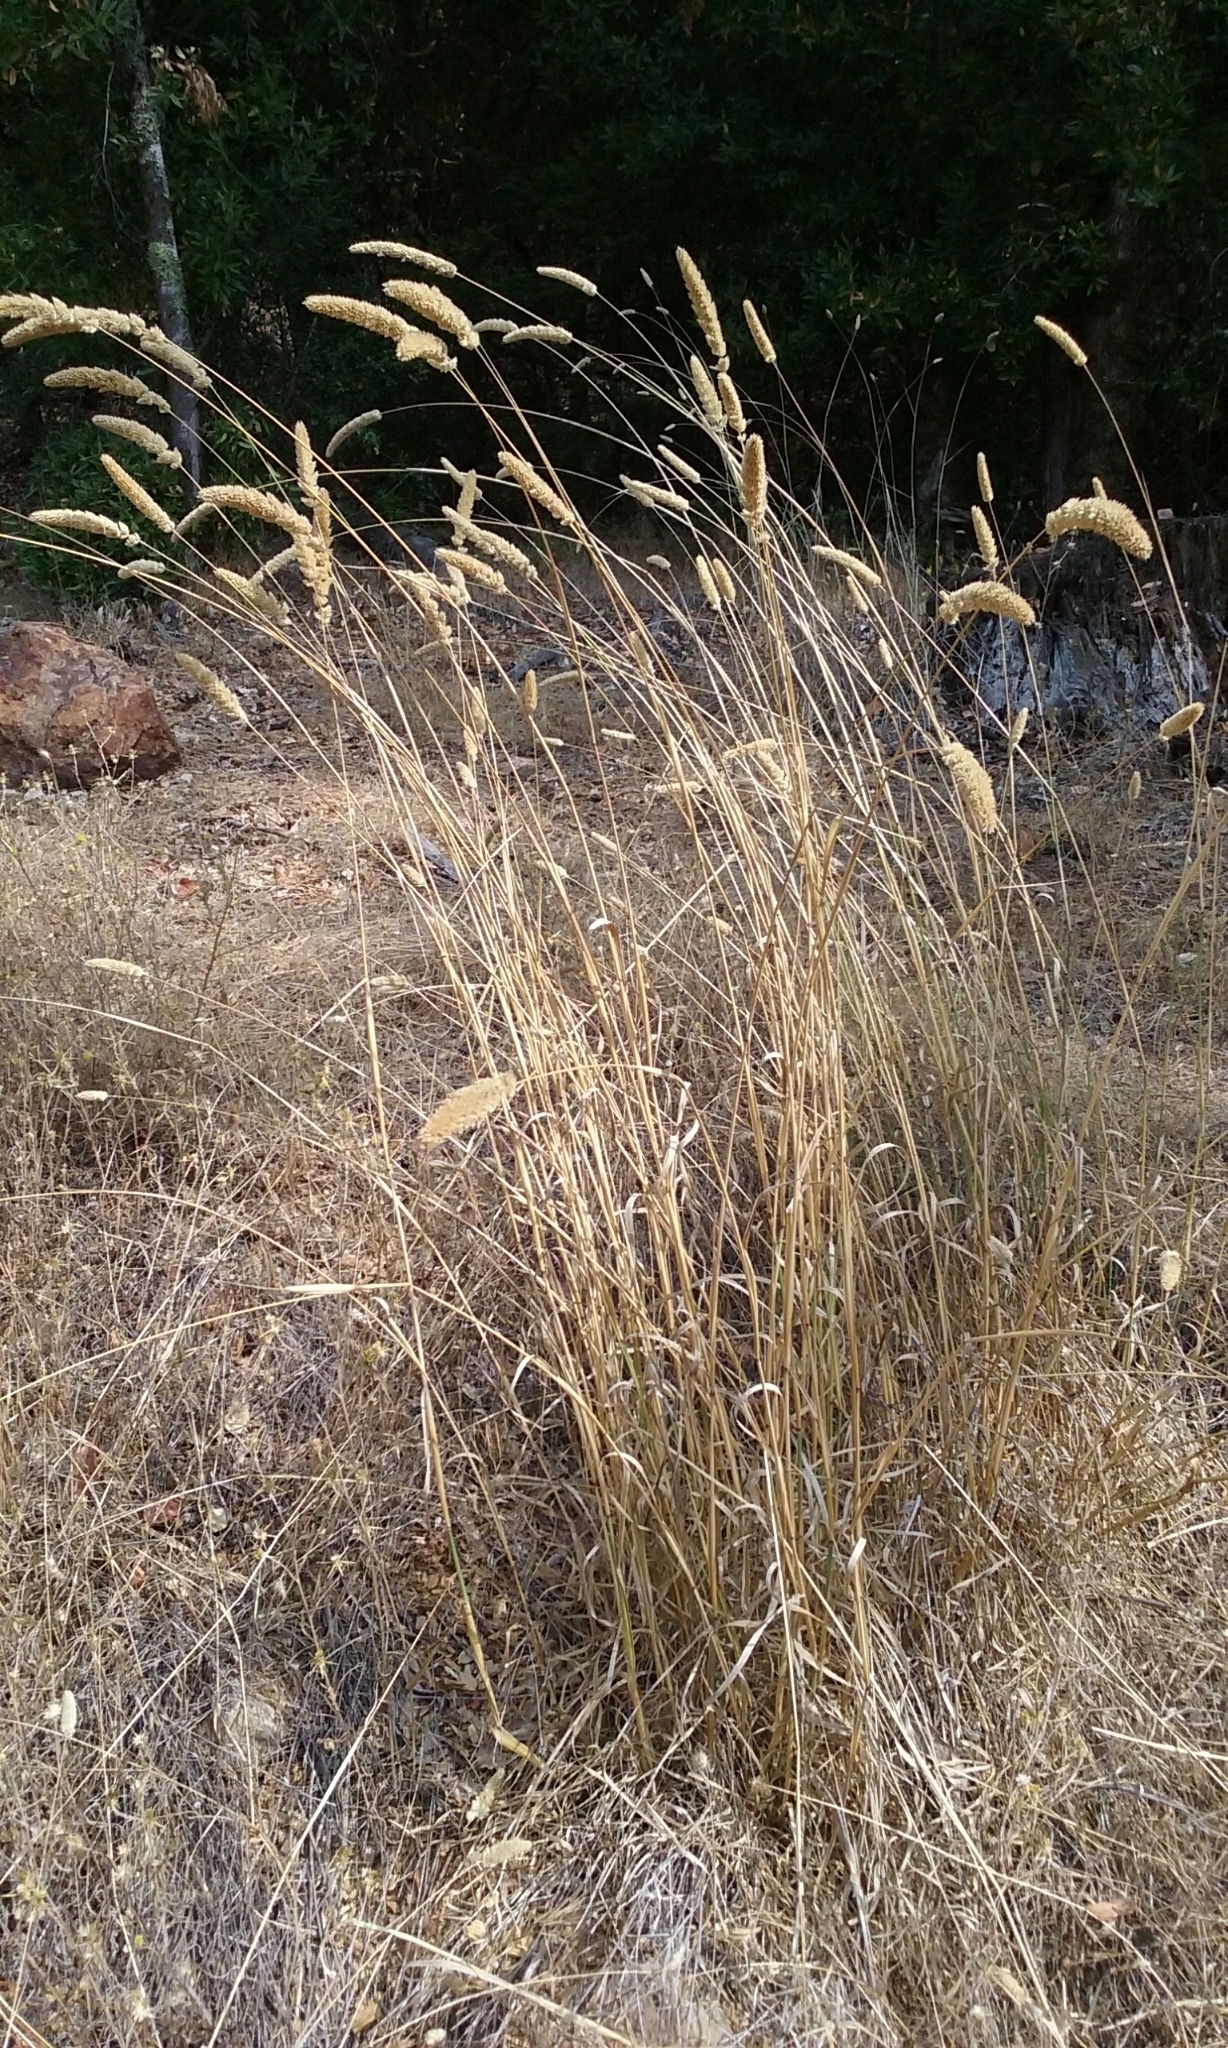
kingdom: Plantae
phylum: Tracheophyta
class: Liliopsida
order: Poales
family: Poaceae
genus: Phalaris
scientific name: Phalaris aquatica
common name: Bulbous canary-grass
